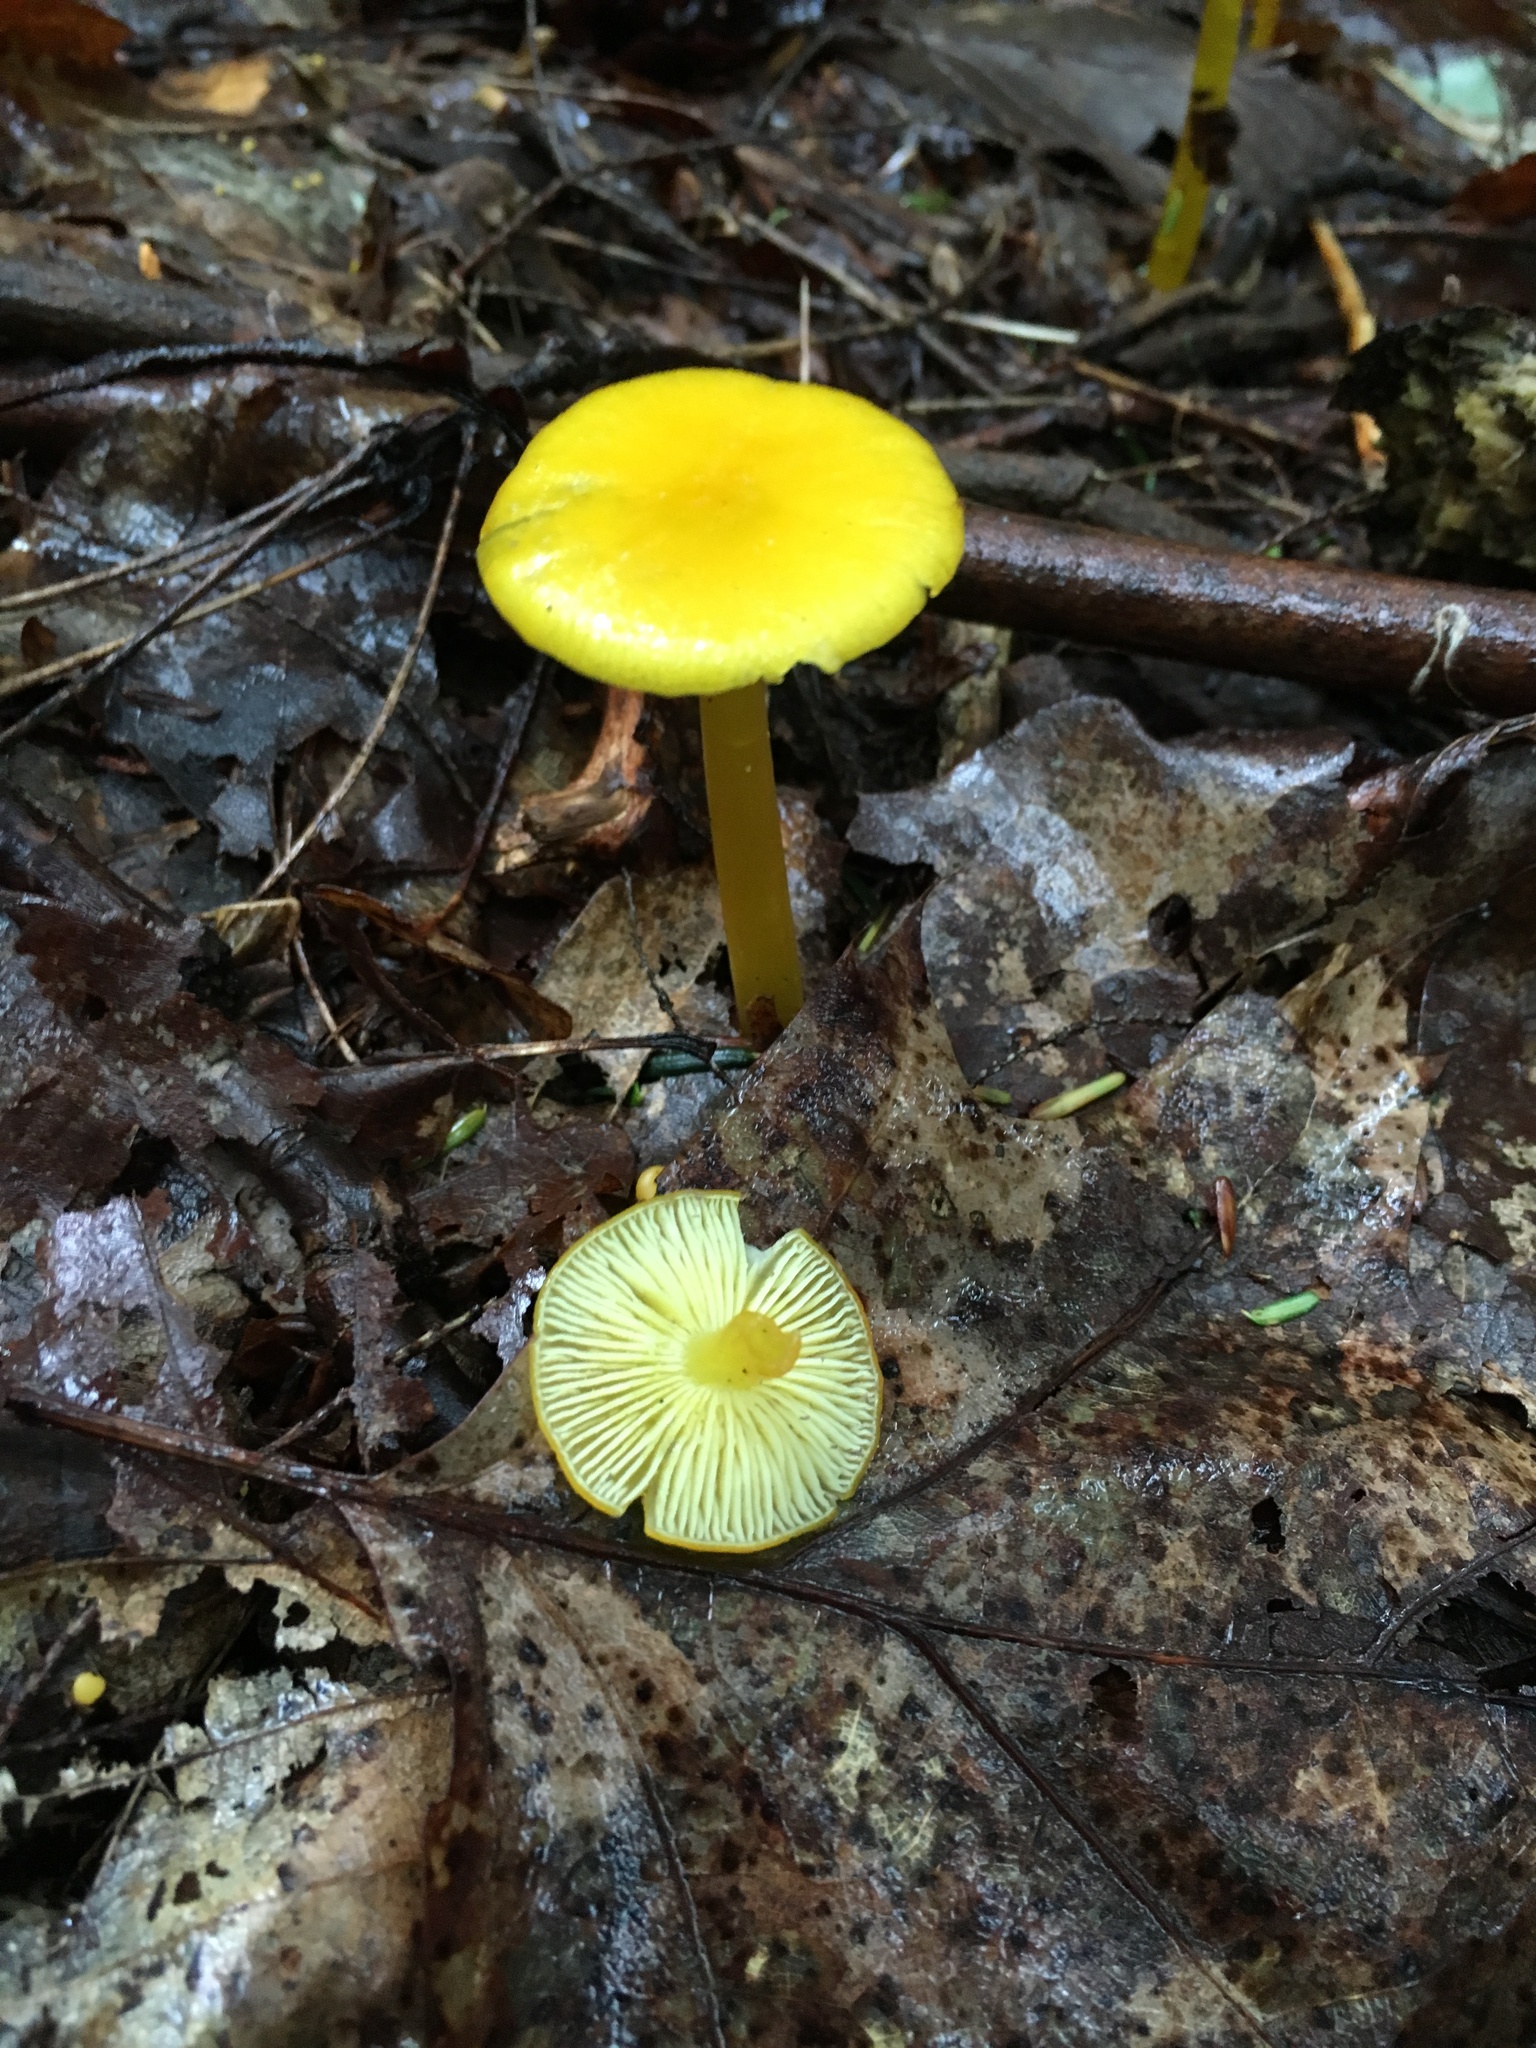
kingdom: Fungi
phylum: Basidiomycota
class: Agaricomycetes
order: Agaricales
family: Hygrophoraceae
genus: Hygrocybe
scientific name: Hygrocybe flavescens
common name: Golden waxy cap
